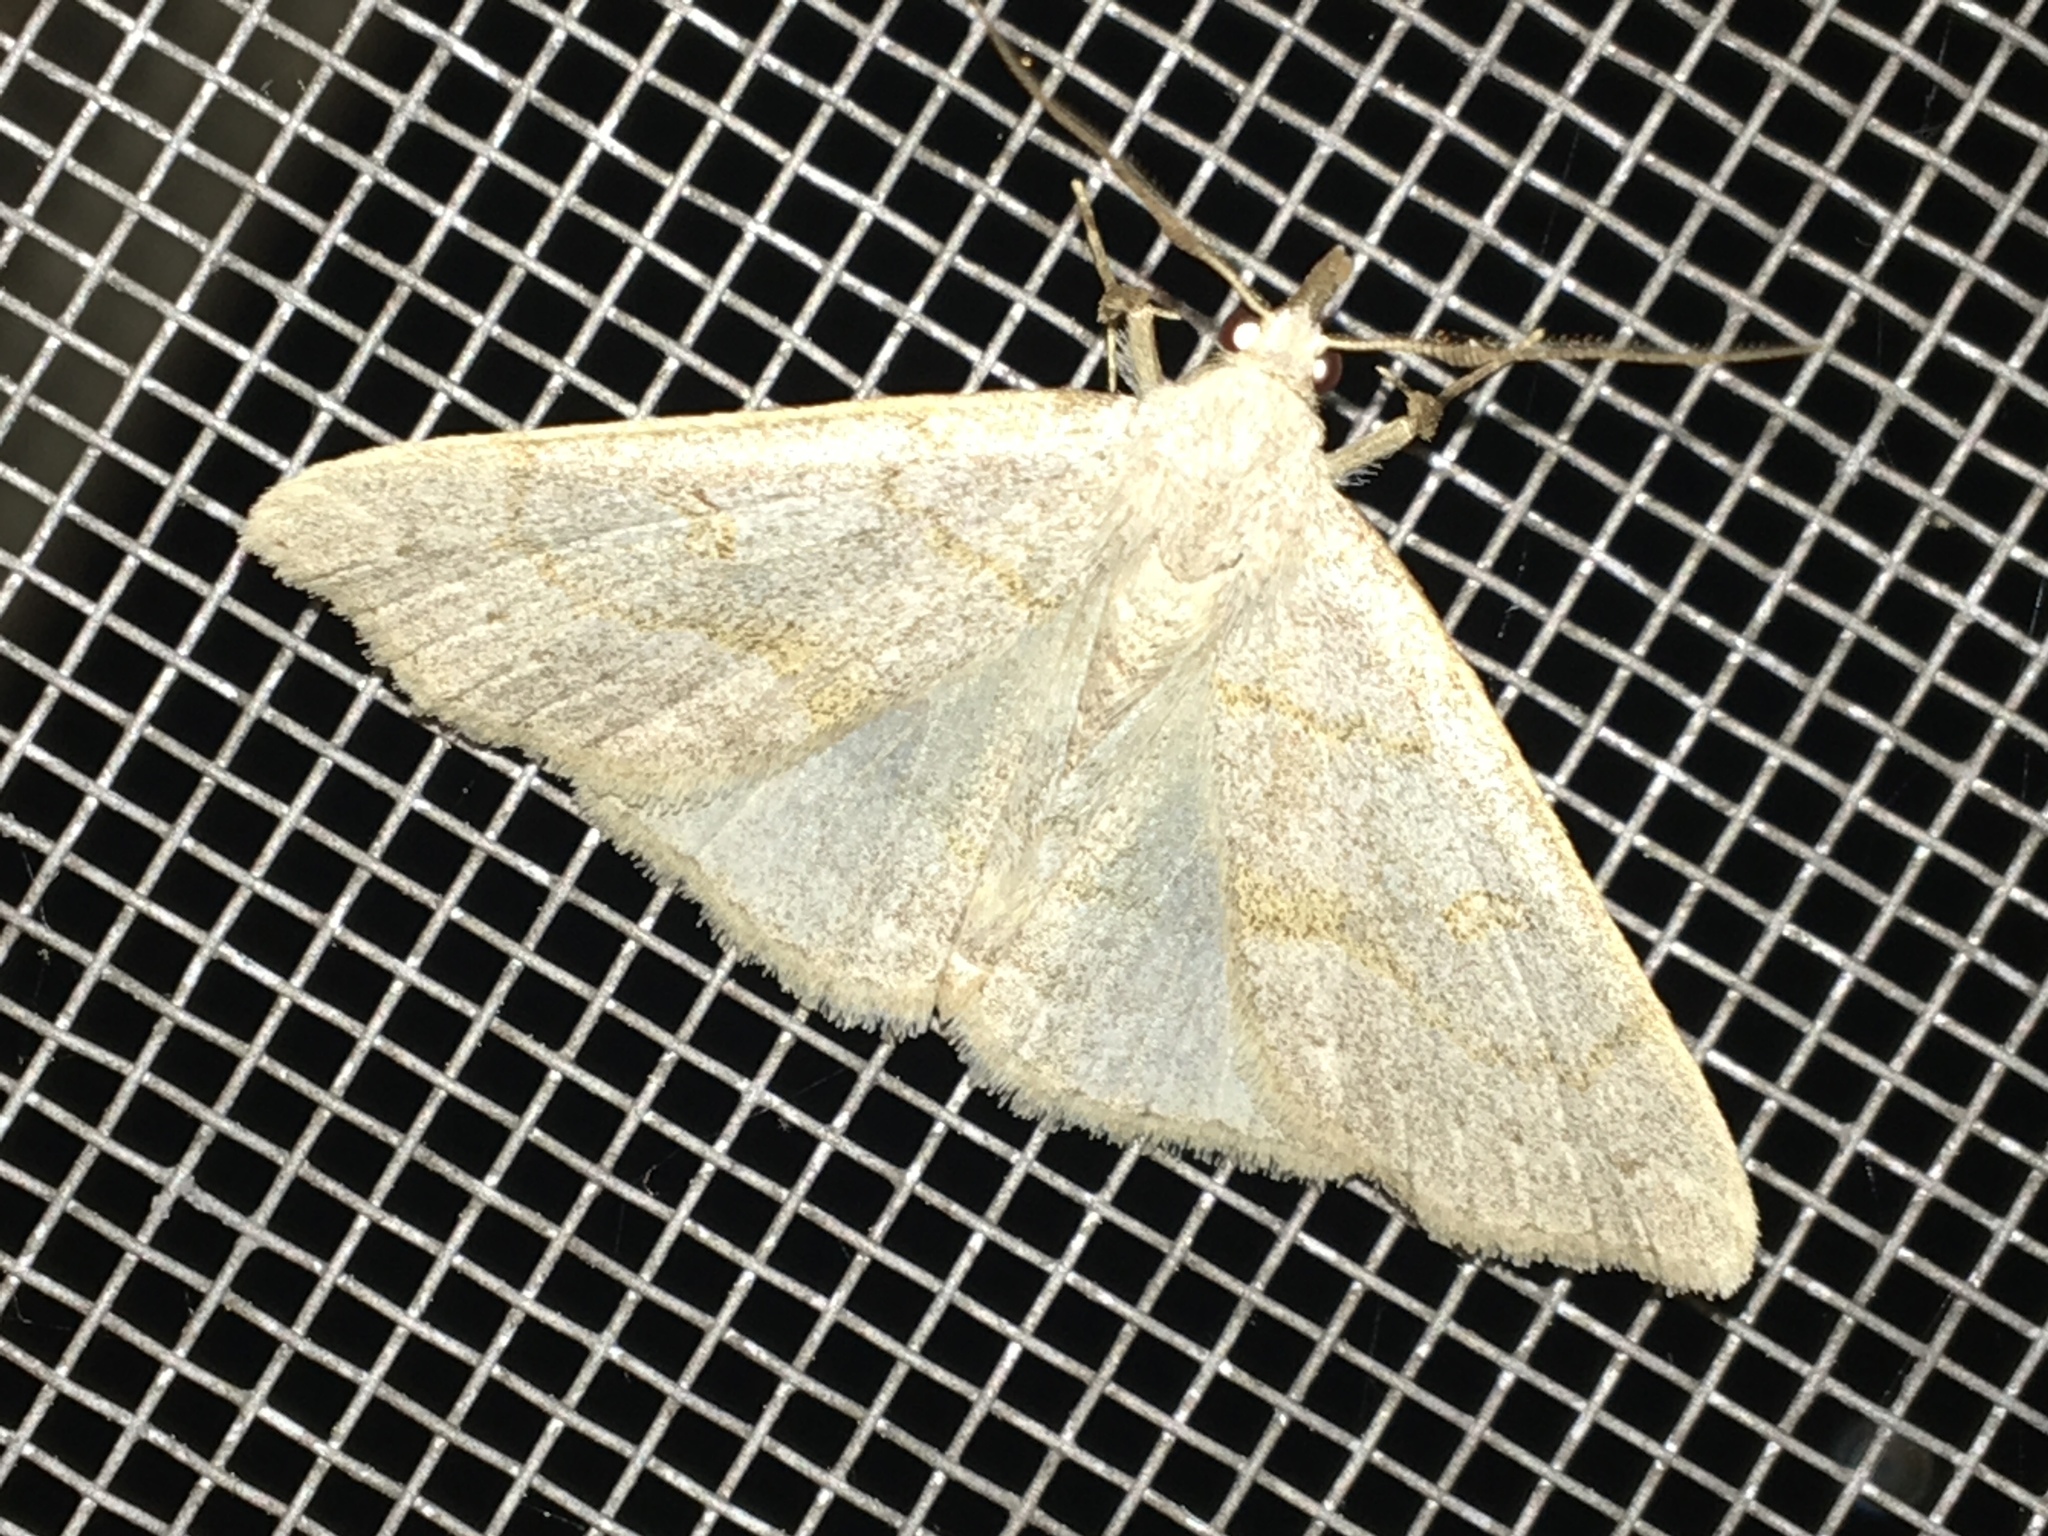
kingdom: Animalia
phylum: Arthropoda
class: Insecta
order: Lepidoptera
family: Erebidae
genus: Macrochilo
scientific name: Macrochilo morbidalis
